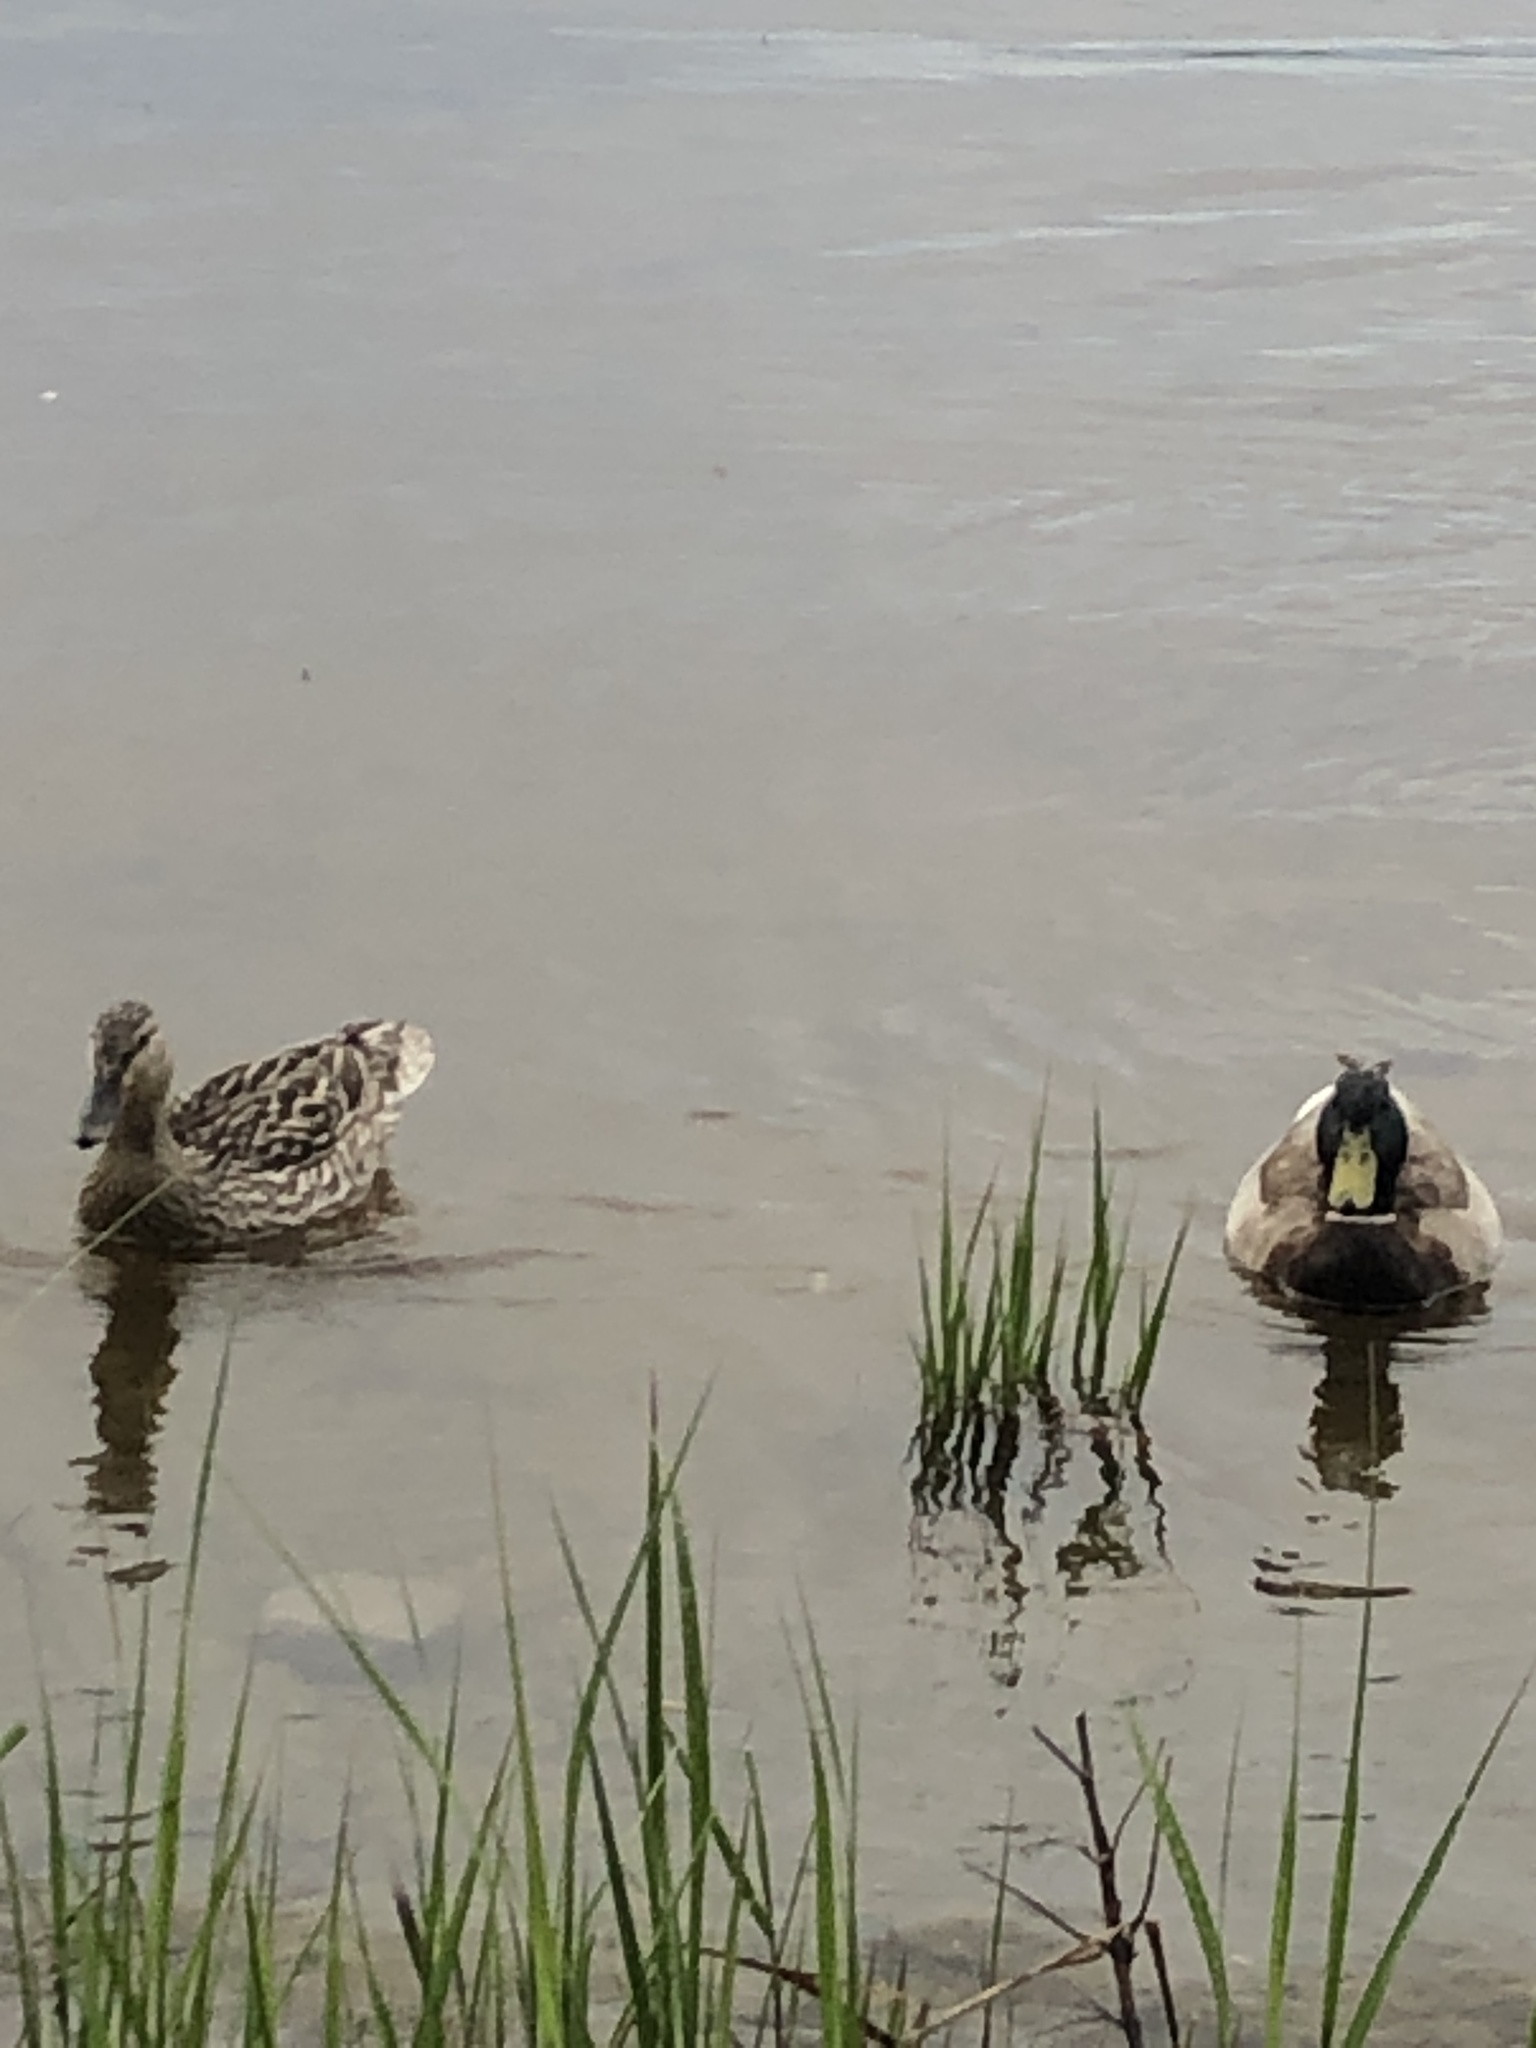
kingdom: Animalia
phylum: Chordata
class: Aves
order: Anseriformes
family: Anatidae
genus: Anas
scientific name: Anas platyrhynchos
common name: Mallard
